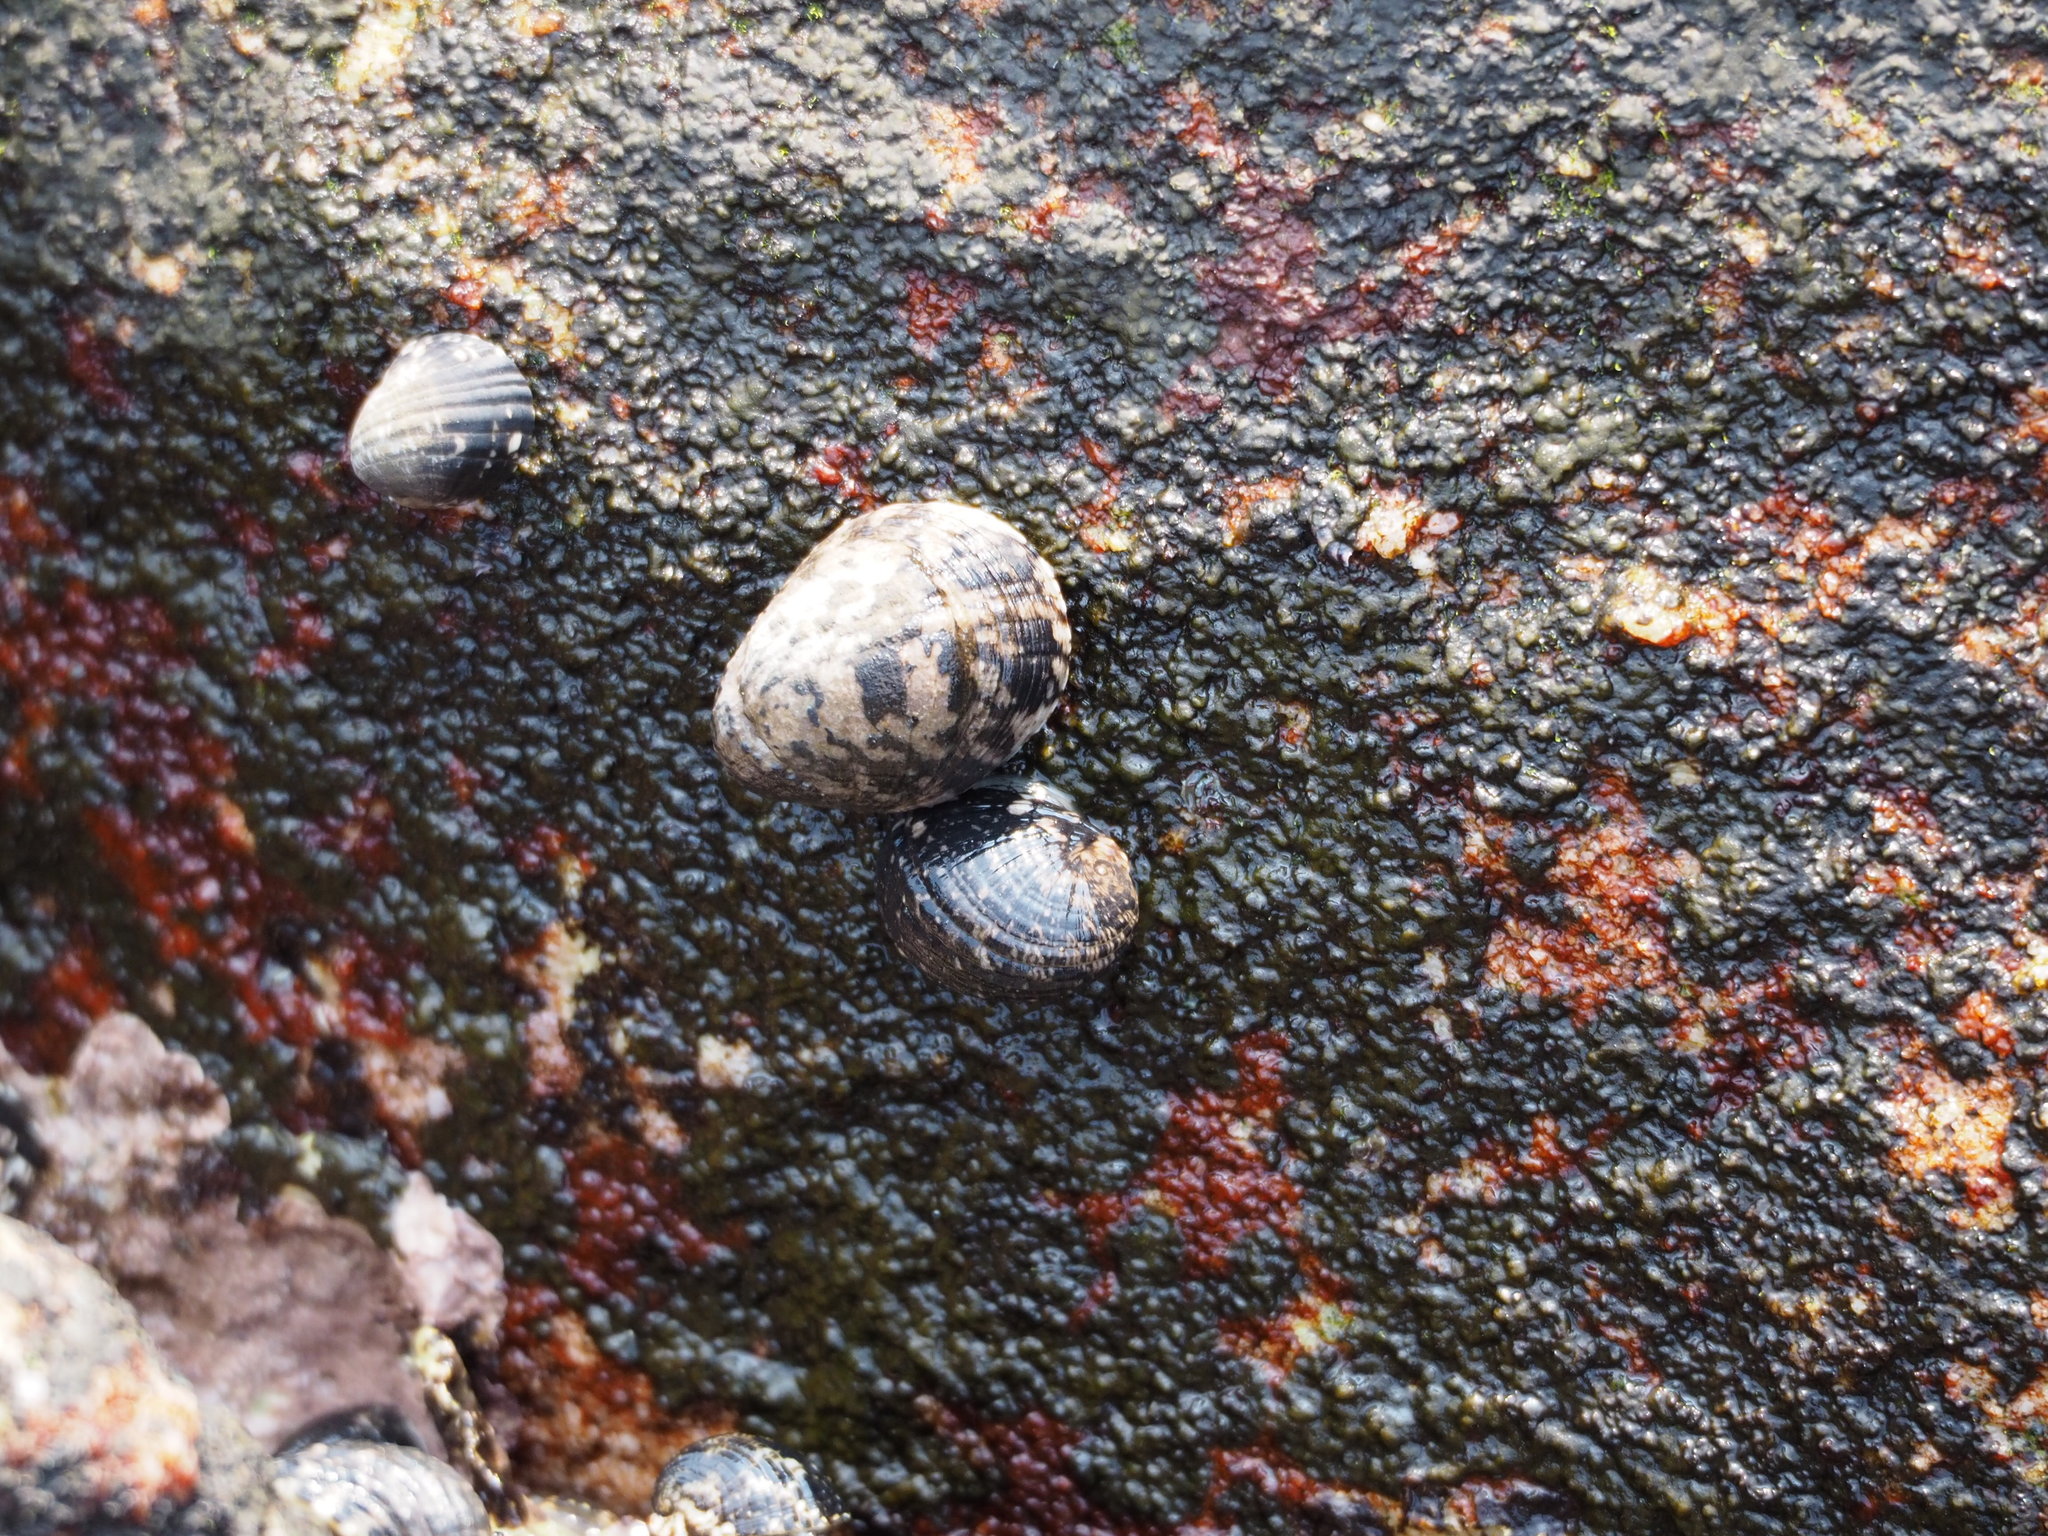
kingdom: Animalia
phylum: Mollusca
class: Gastropoda
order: Cycloneritida
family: Neritidae
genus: Nerita
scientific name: Nerita albicilla
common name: Blotched nerite
